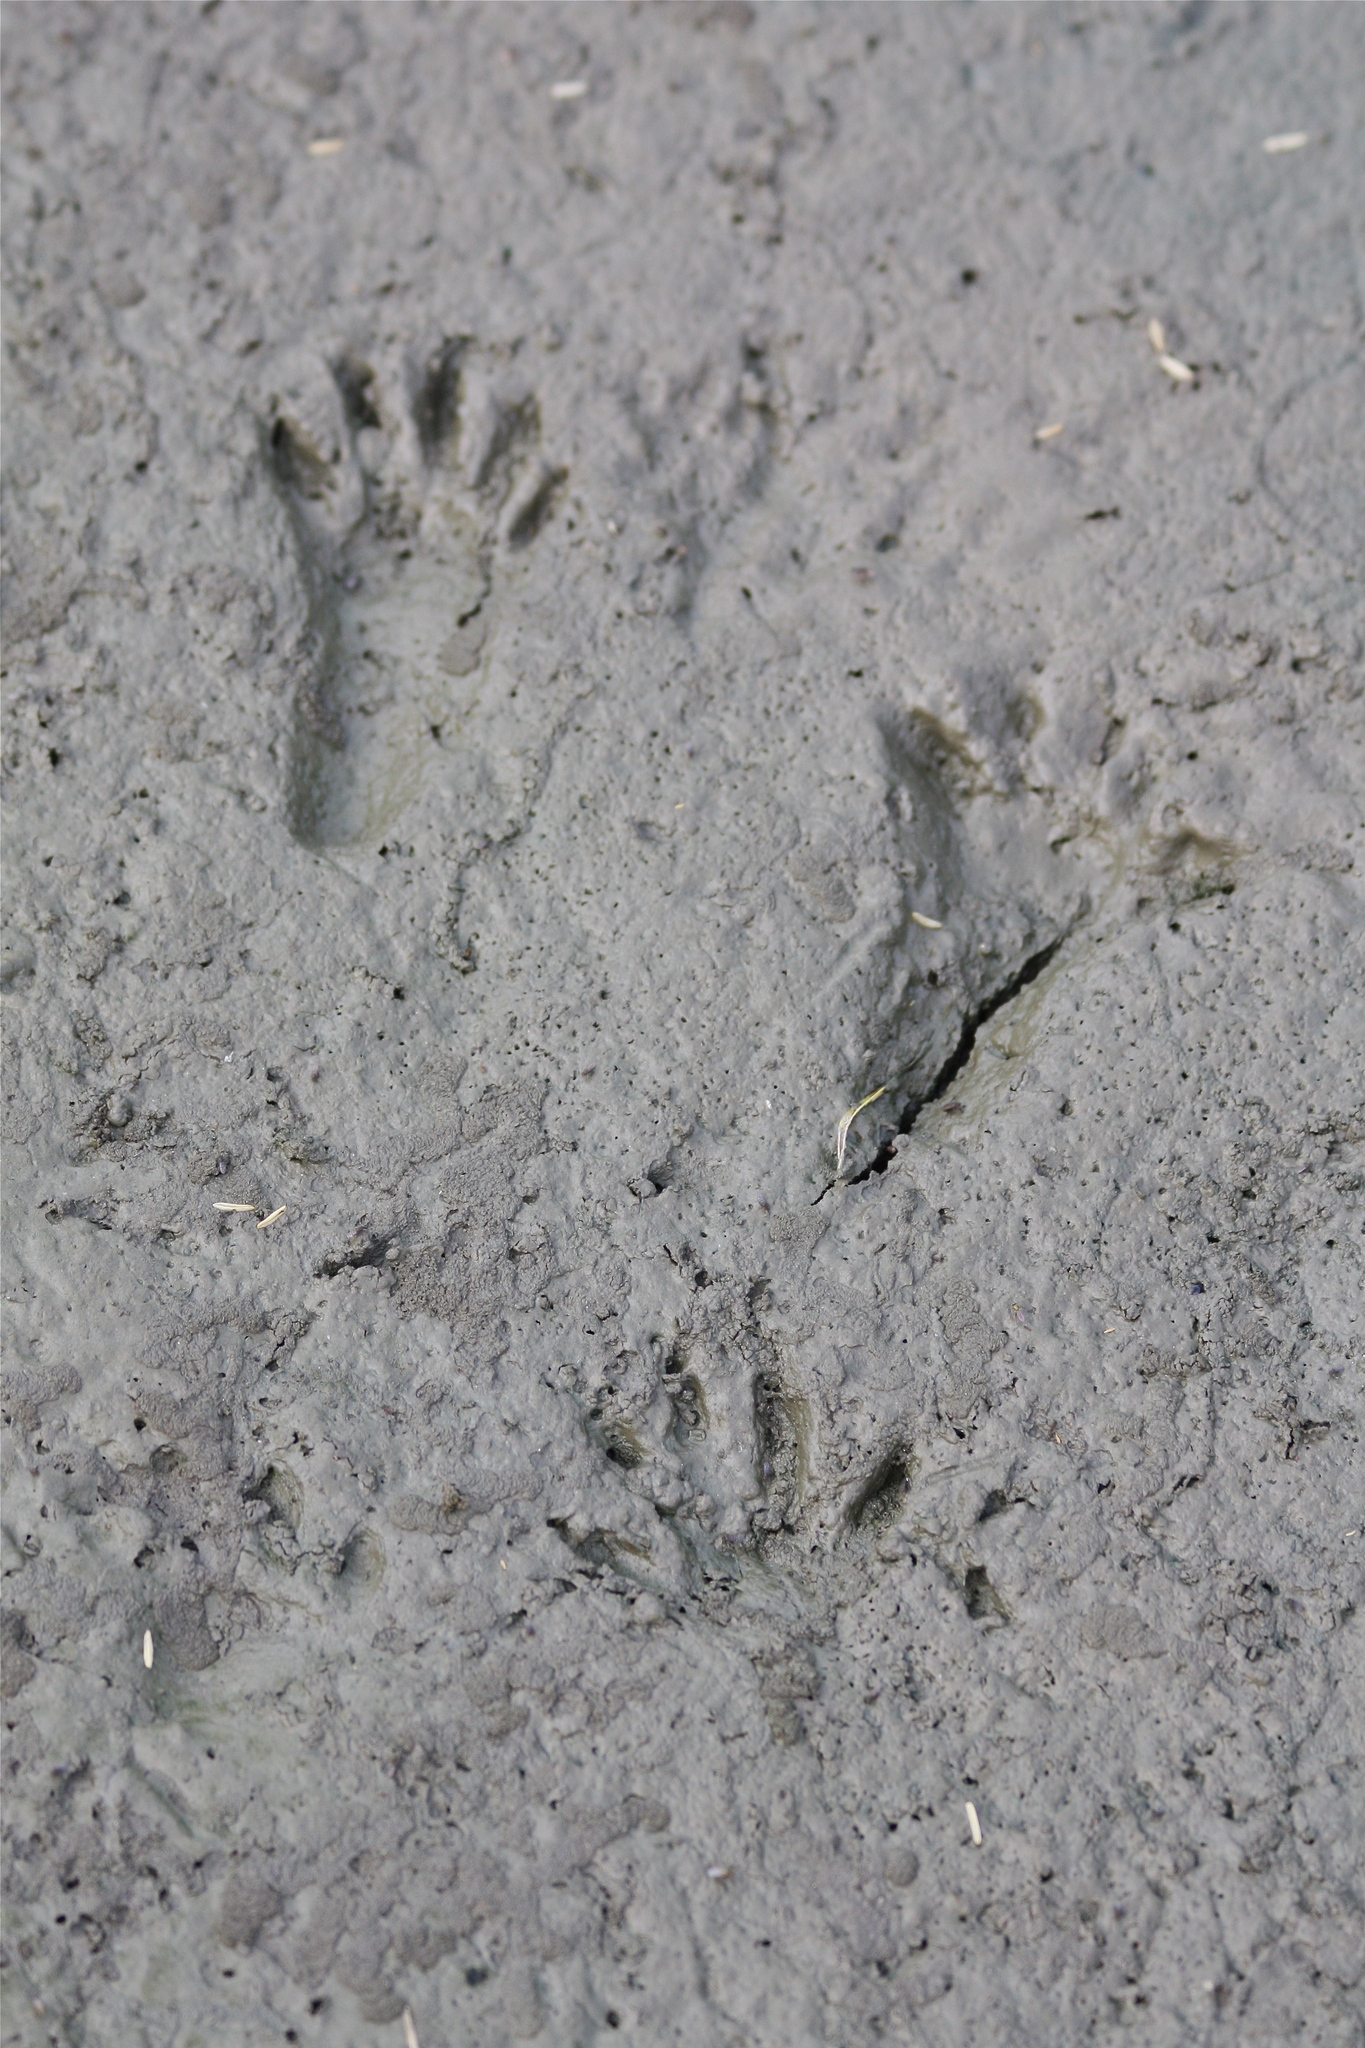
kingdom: Animalia
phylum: Chordata
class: Mammalia
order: Carnivora
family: Procyonidae
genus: Procyon
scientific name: Procyon lotor
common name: Raccoon
